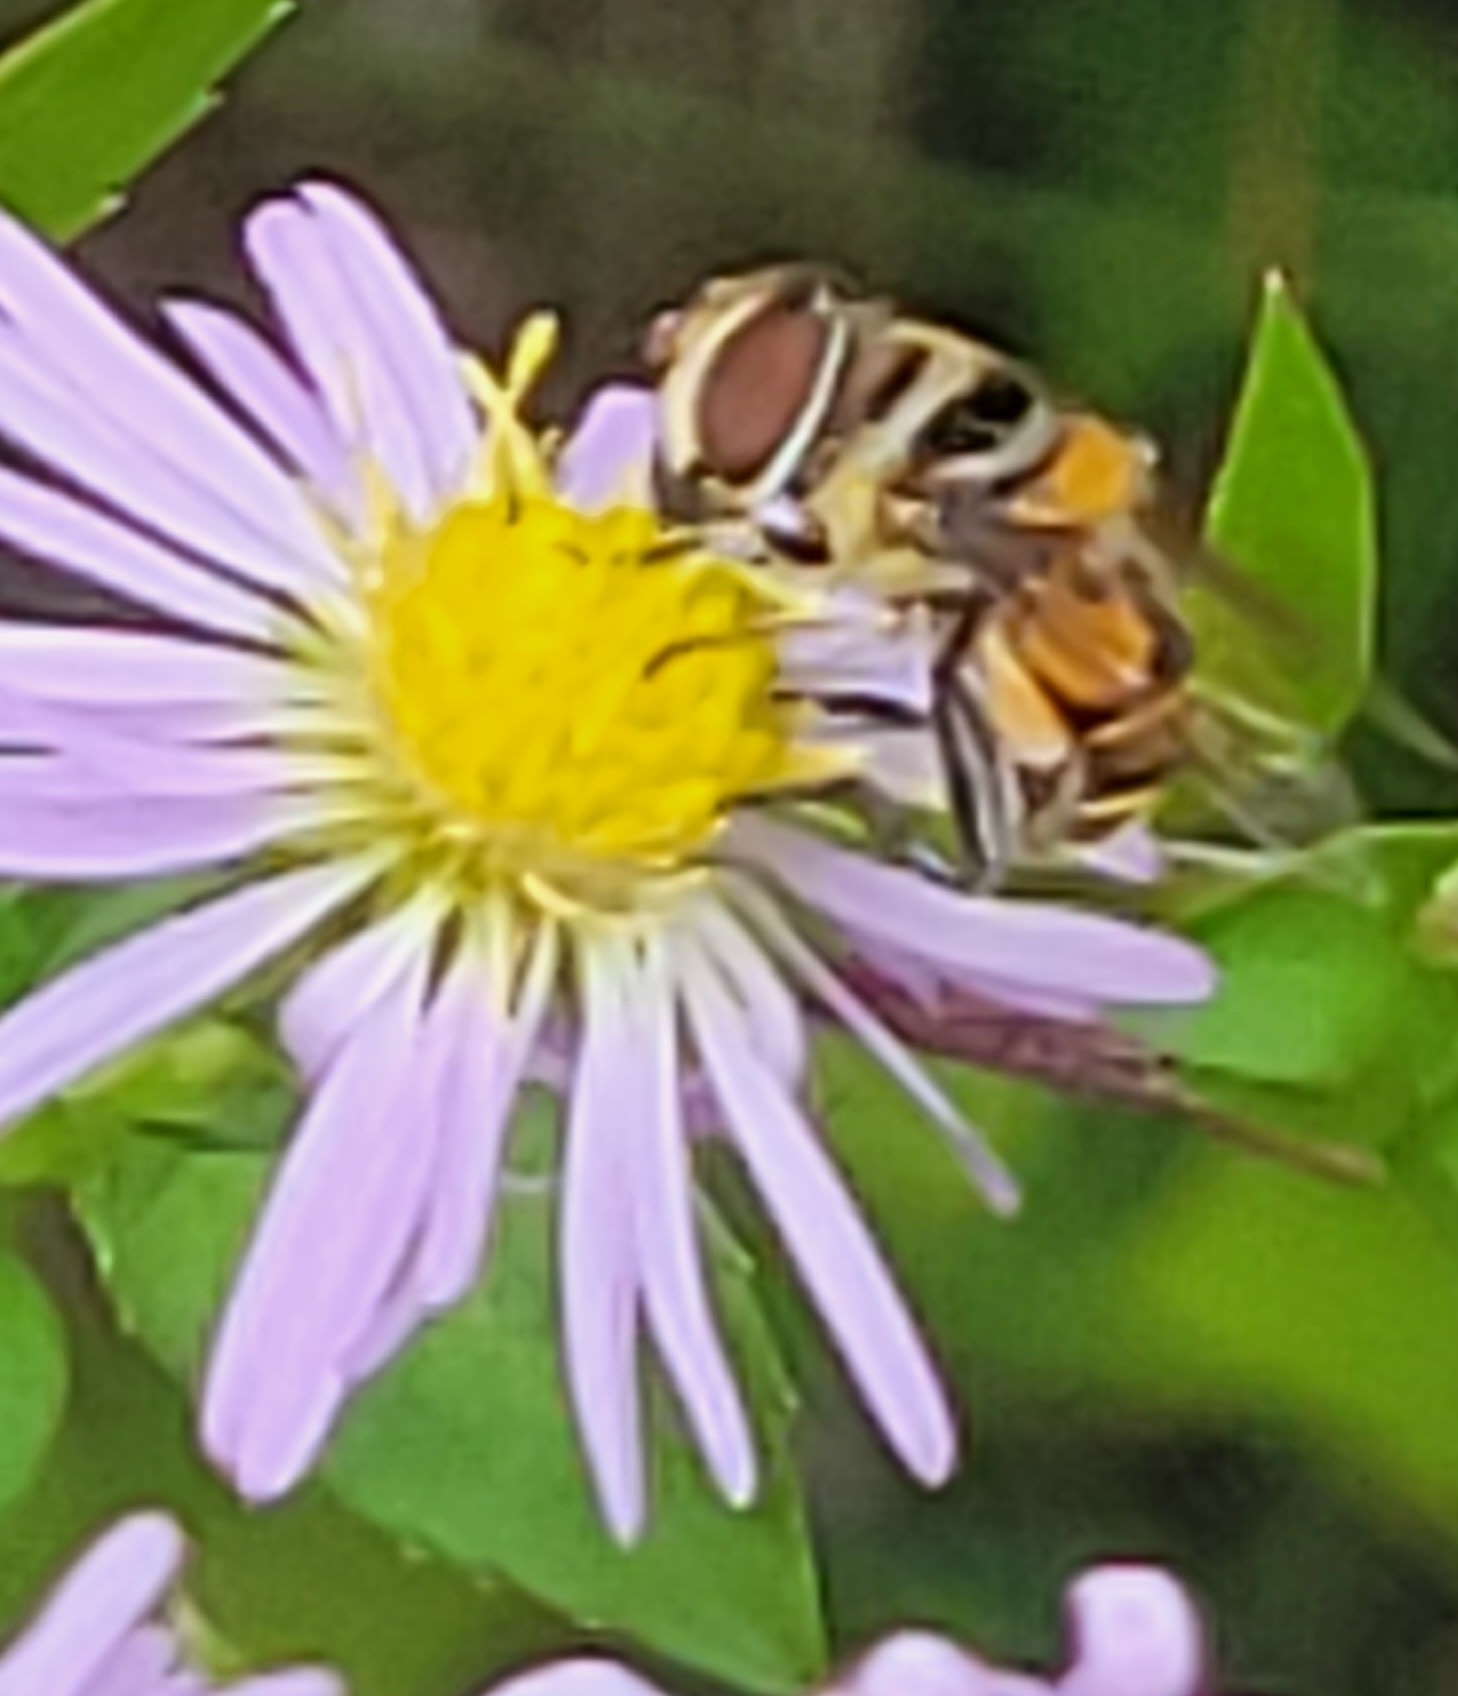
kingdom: Animalia
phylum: Arthropoda
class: Insecta
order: Diptera
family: Syrphidae
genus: Palpada
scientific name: Palpada agrorum
